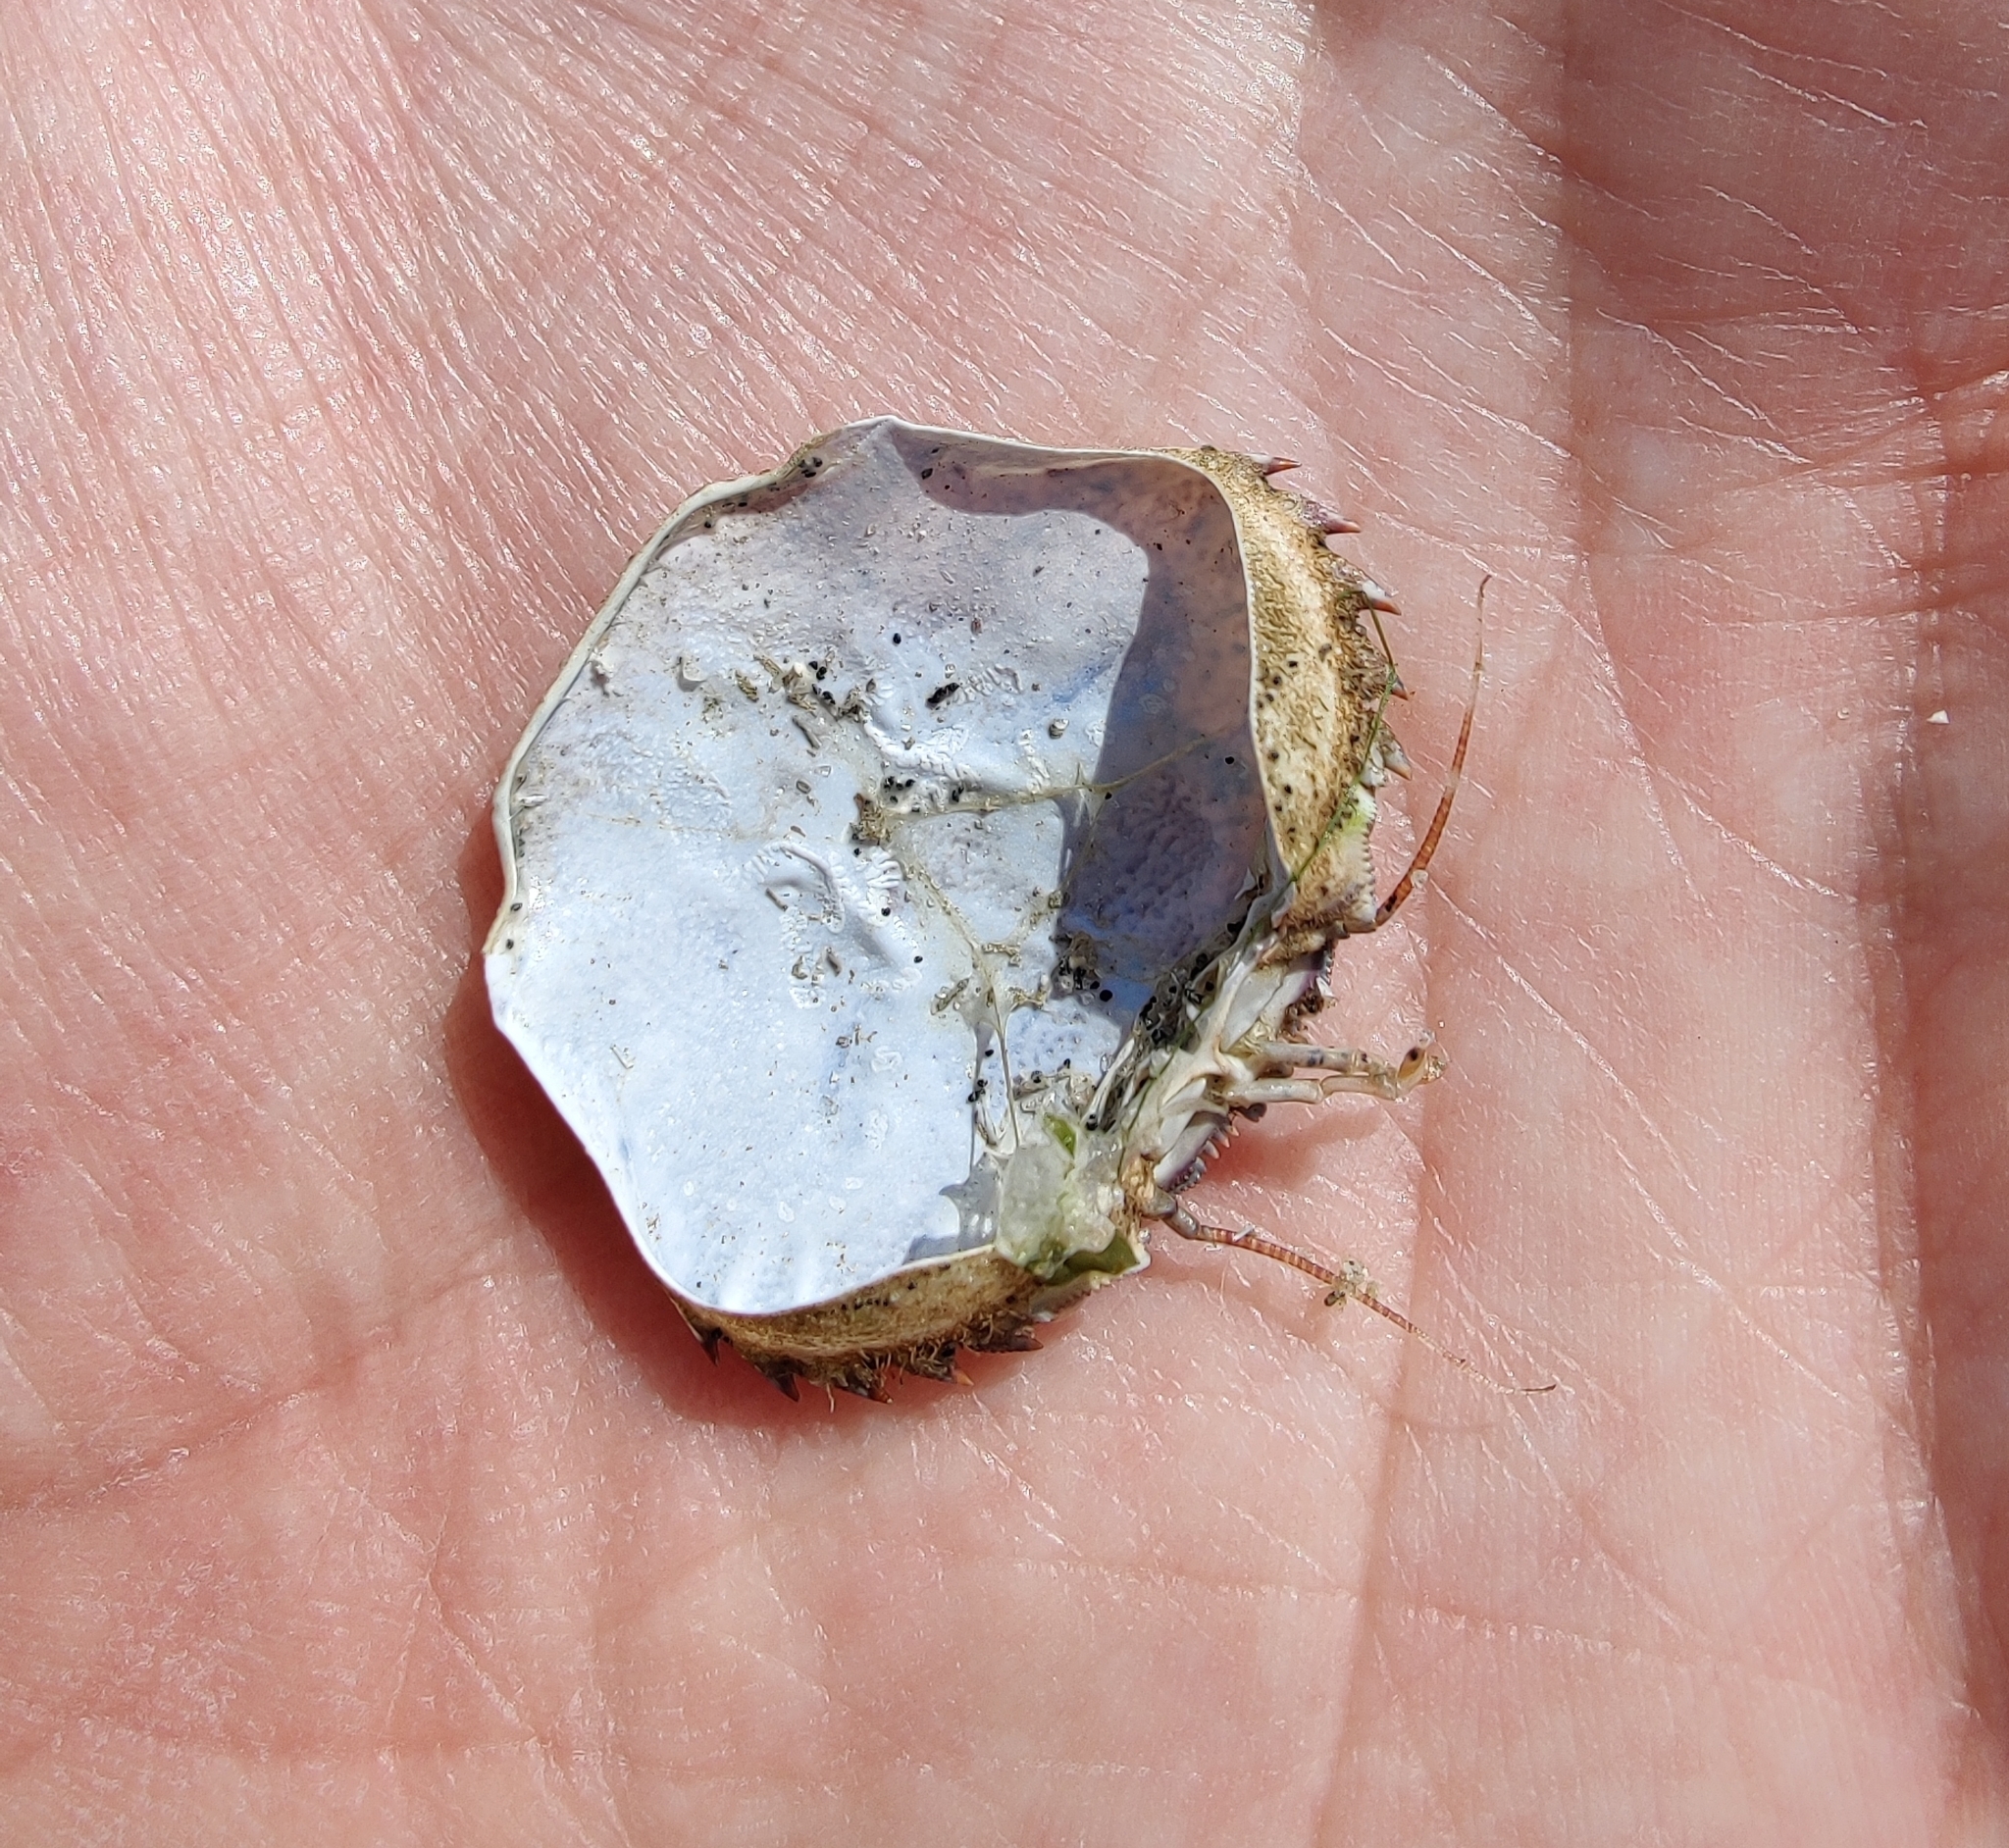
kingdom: Animalia
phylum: Arthropoda
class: Malacostraca
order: Decapoda
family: Polybiidae
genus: Necora
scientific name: Necora puber
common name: Velvet swimming crab
